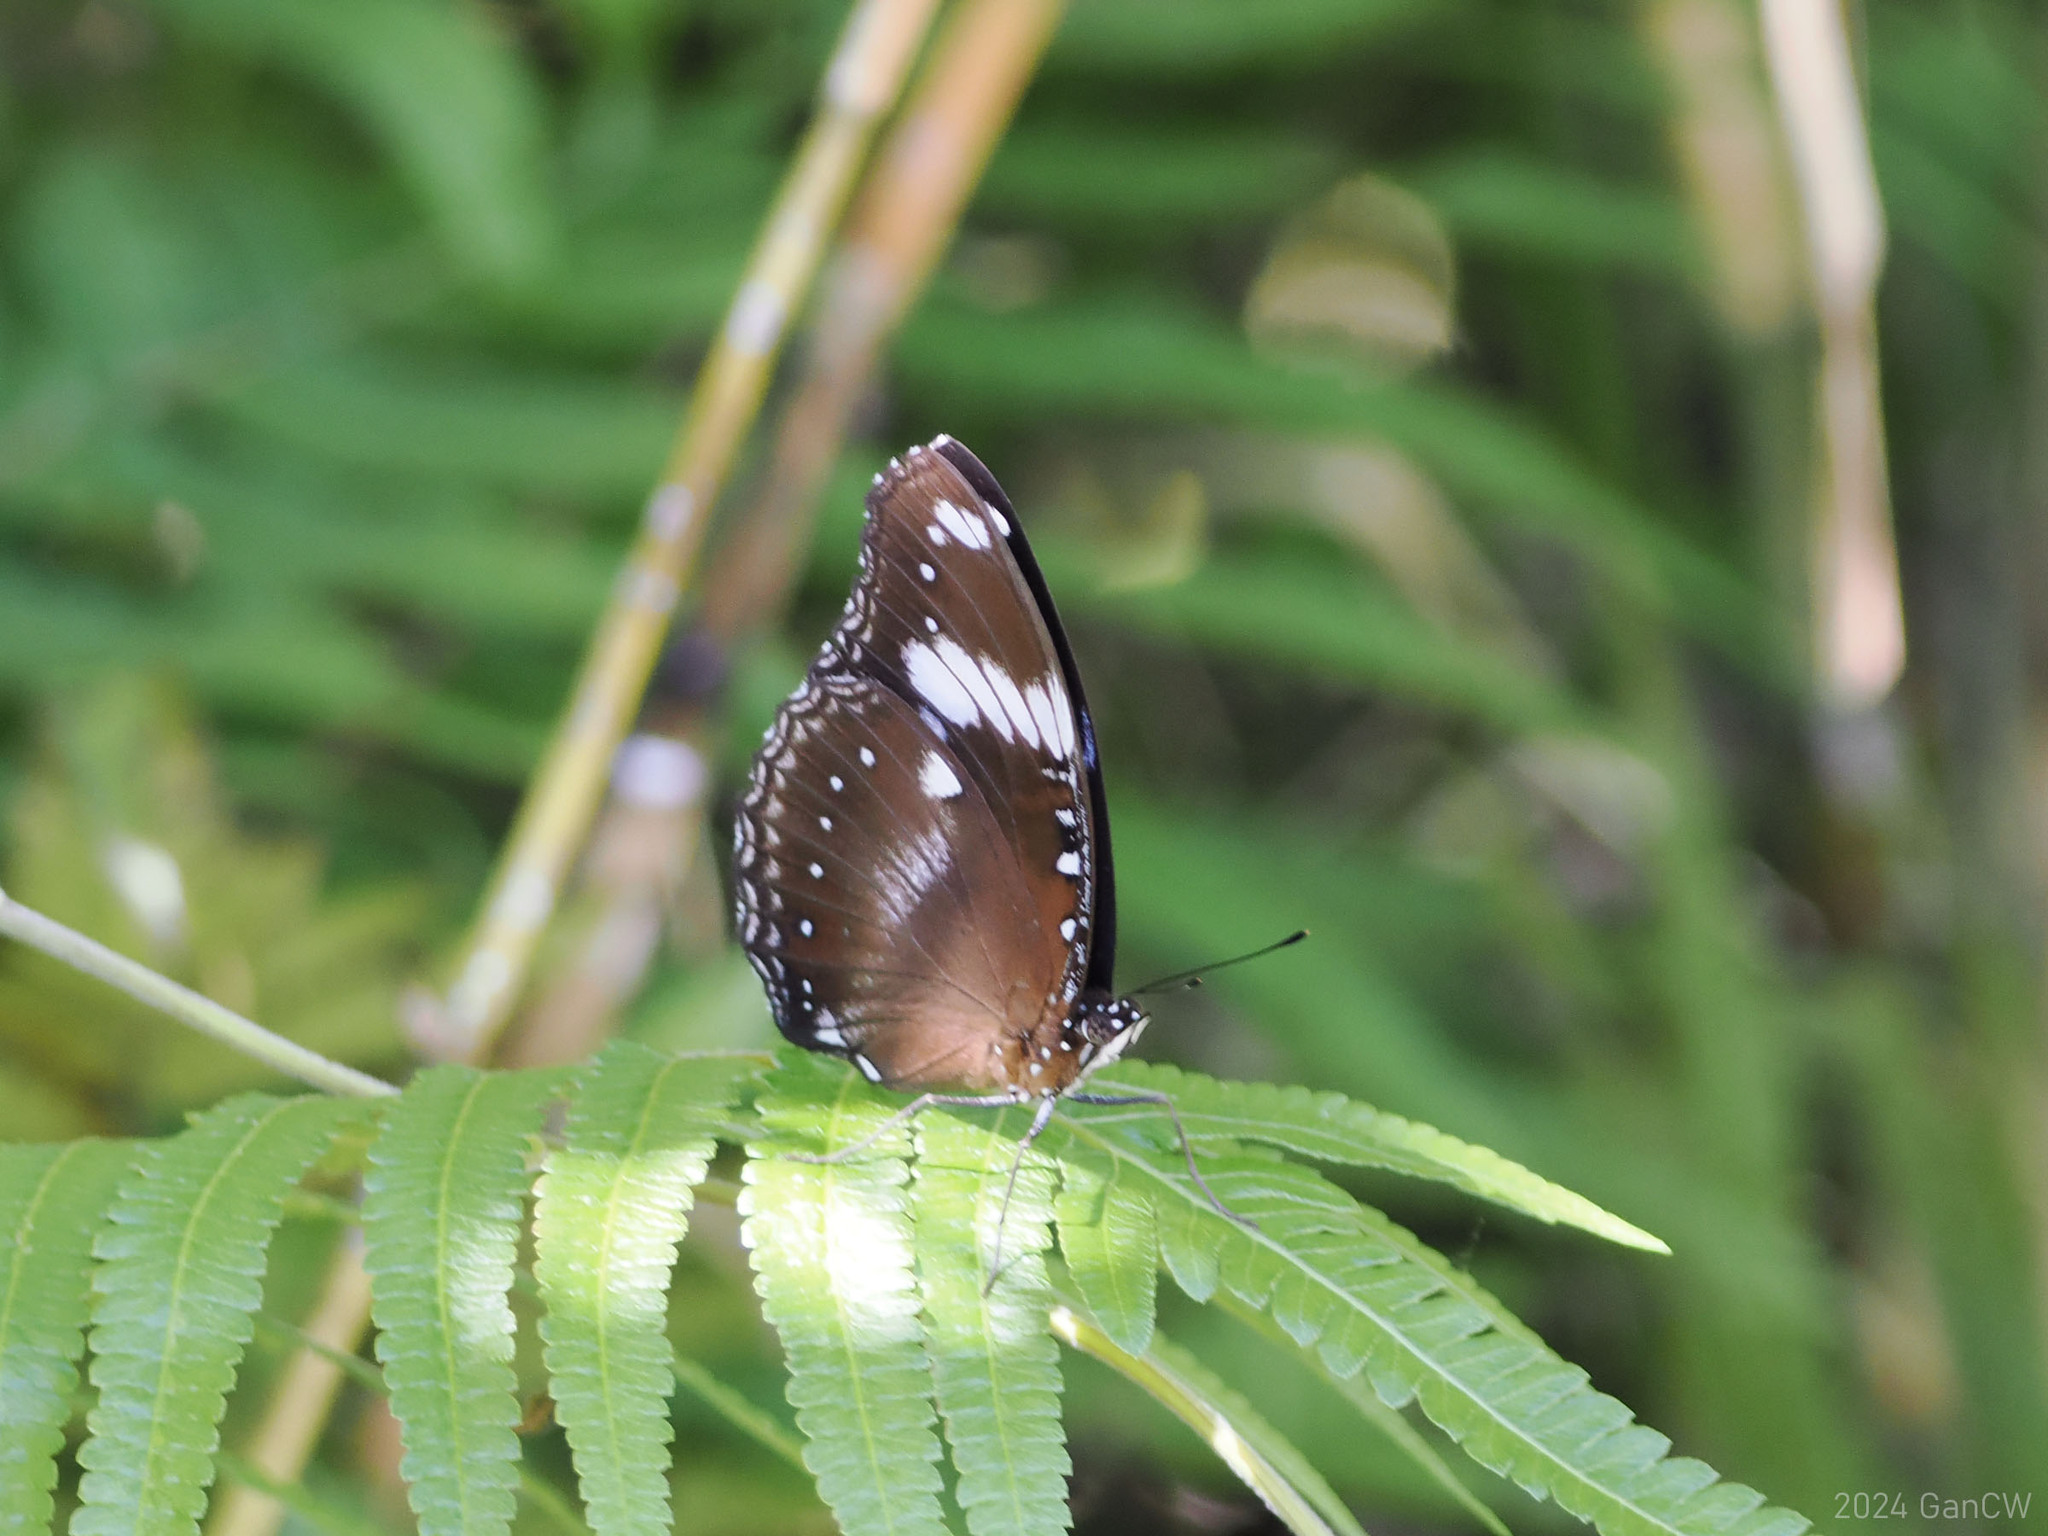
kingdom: Animalia
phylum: Arthropoda
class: Insecta
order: Lepidoptera
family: Nymphalidae
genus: Hypolimnas
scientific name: Hypolimnas bolina
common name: Great eggfly
